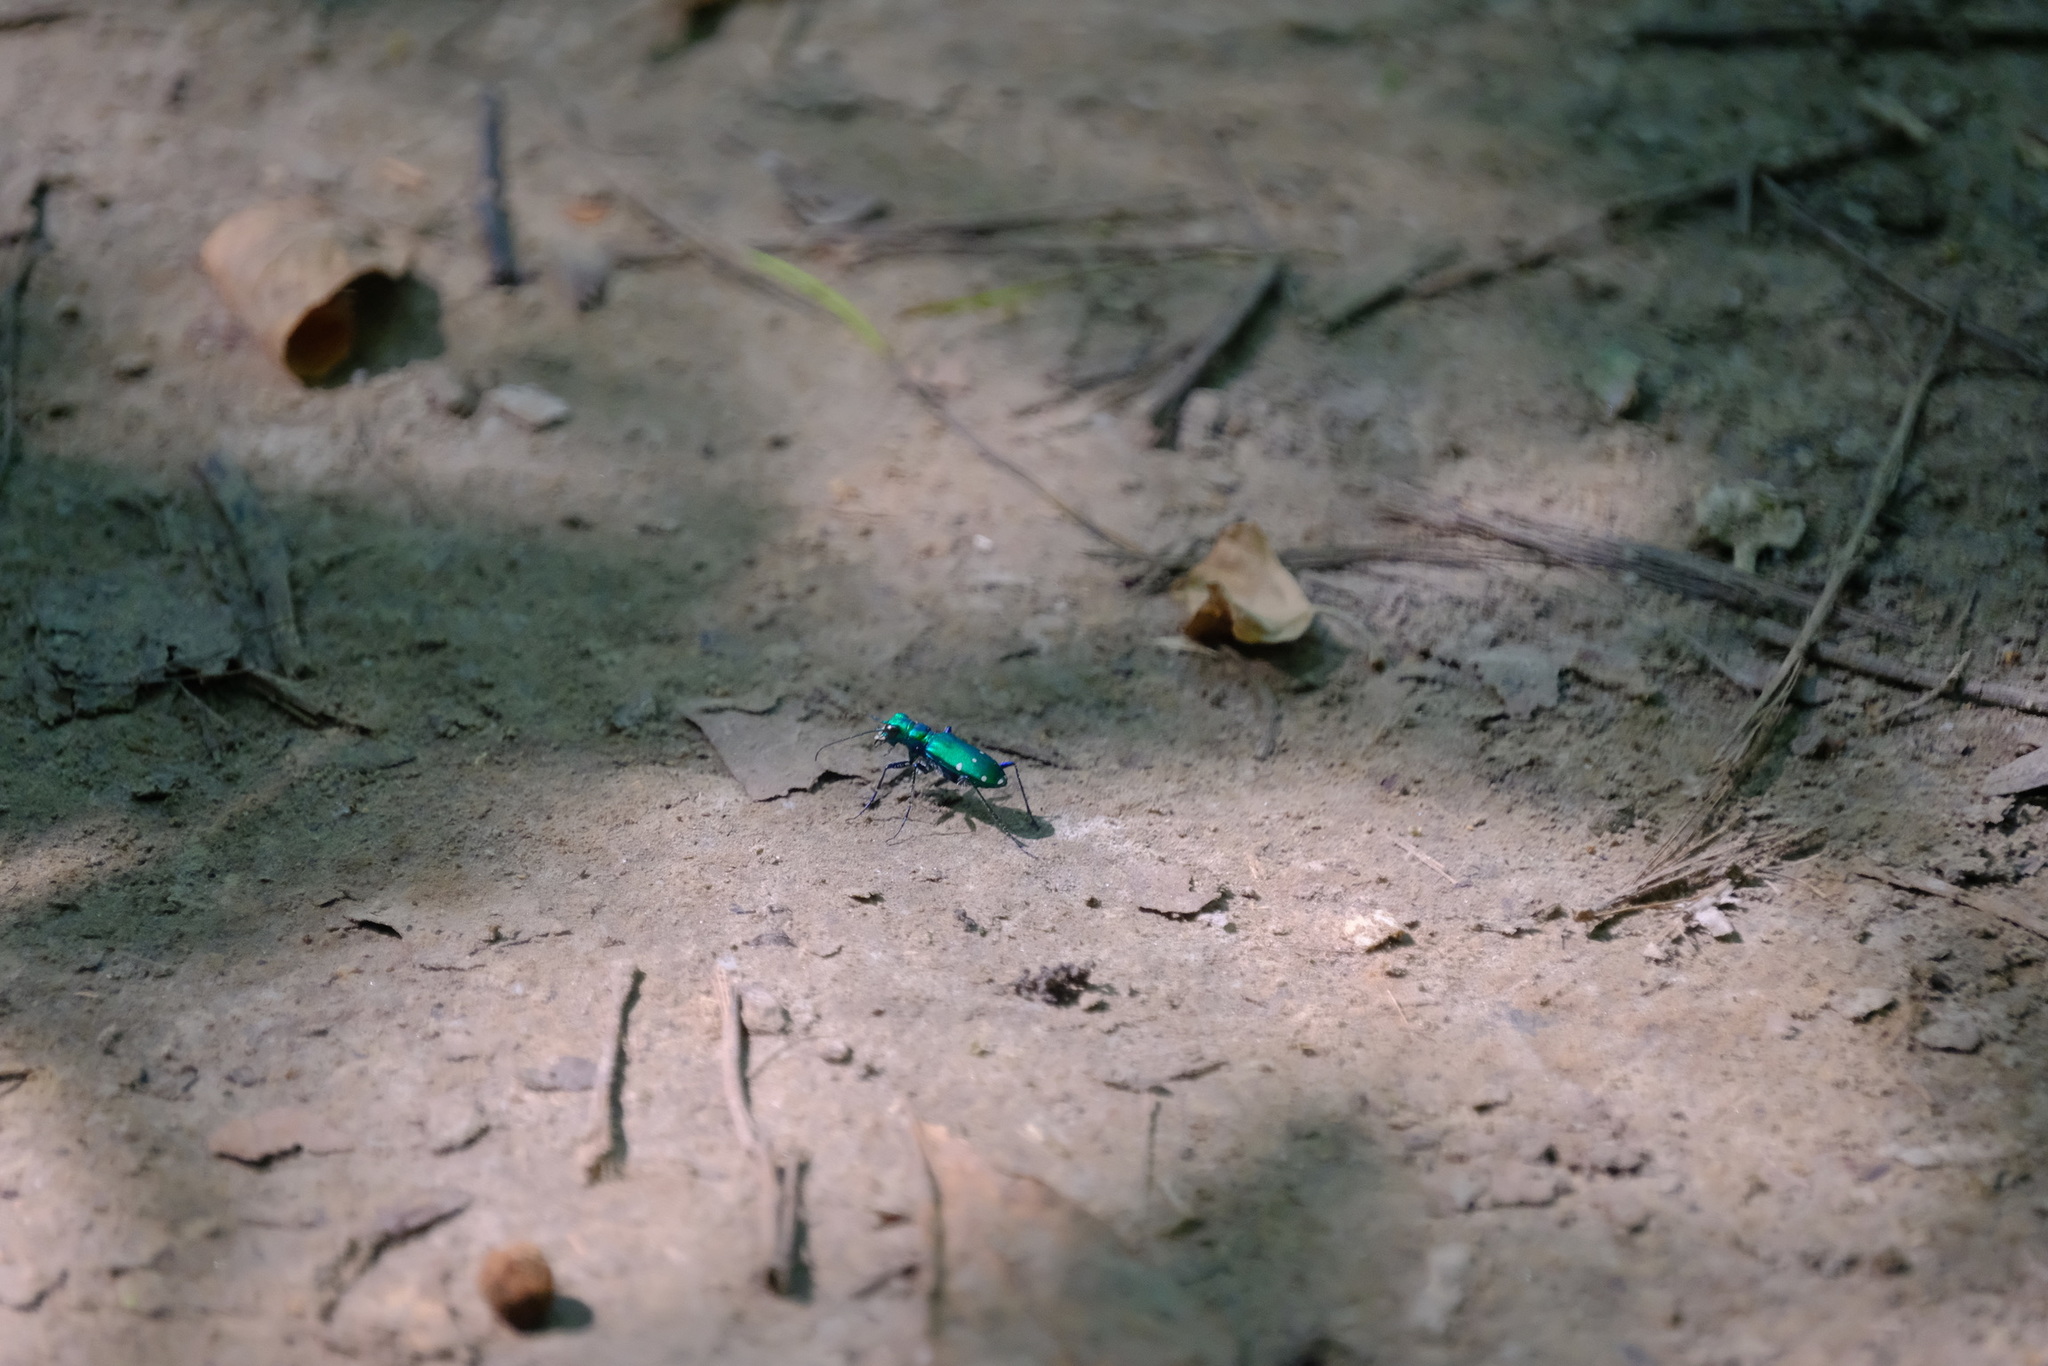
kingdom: Animalia
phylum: Arthropoda
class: Insecta
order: Coleoptera
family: Carabidae
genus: Cicindela
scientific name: Cicindela sexguttata
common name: Six-spotted tiger beetle
